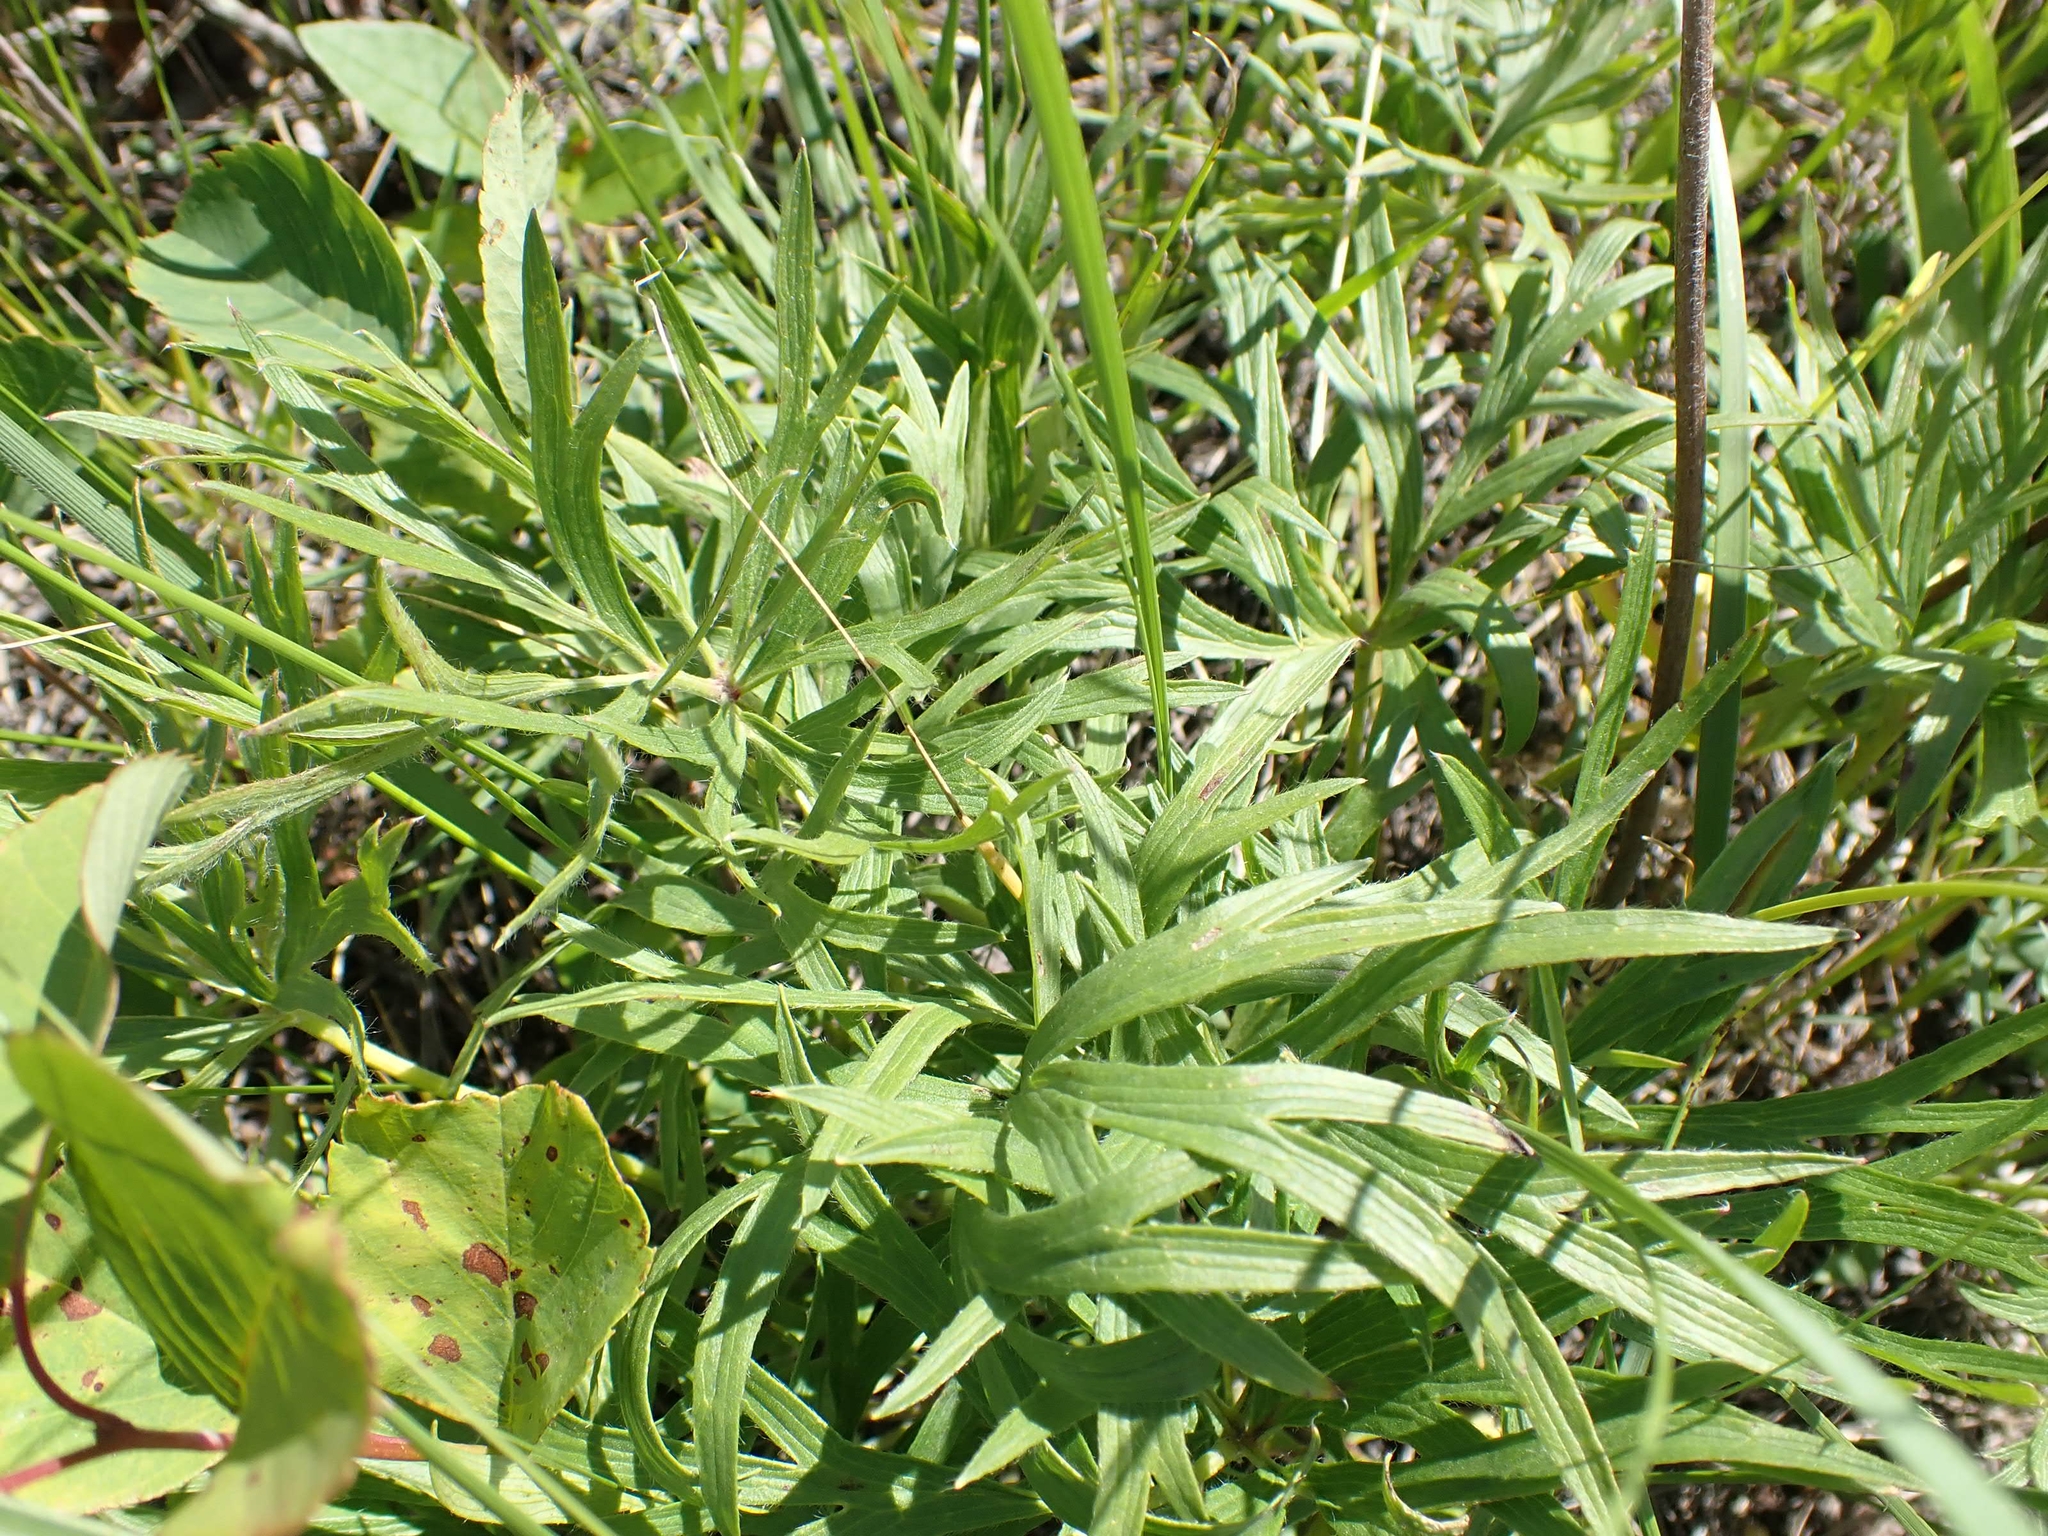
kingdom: Plantae
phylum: Tracheophyta
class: Magnoliopsida
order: Ranunculales
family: Ranunculaceae
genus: Pulsatilla
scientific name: Pulsatilla nuttalliana
